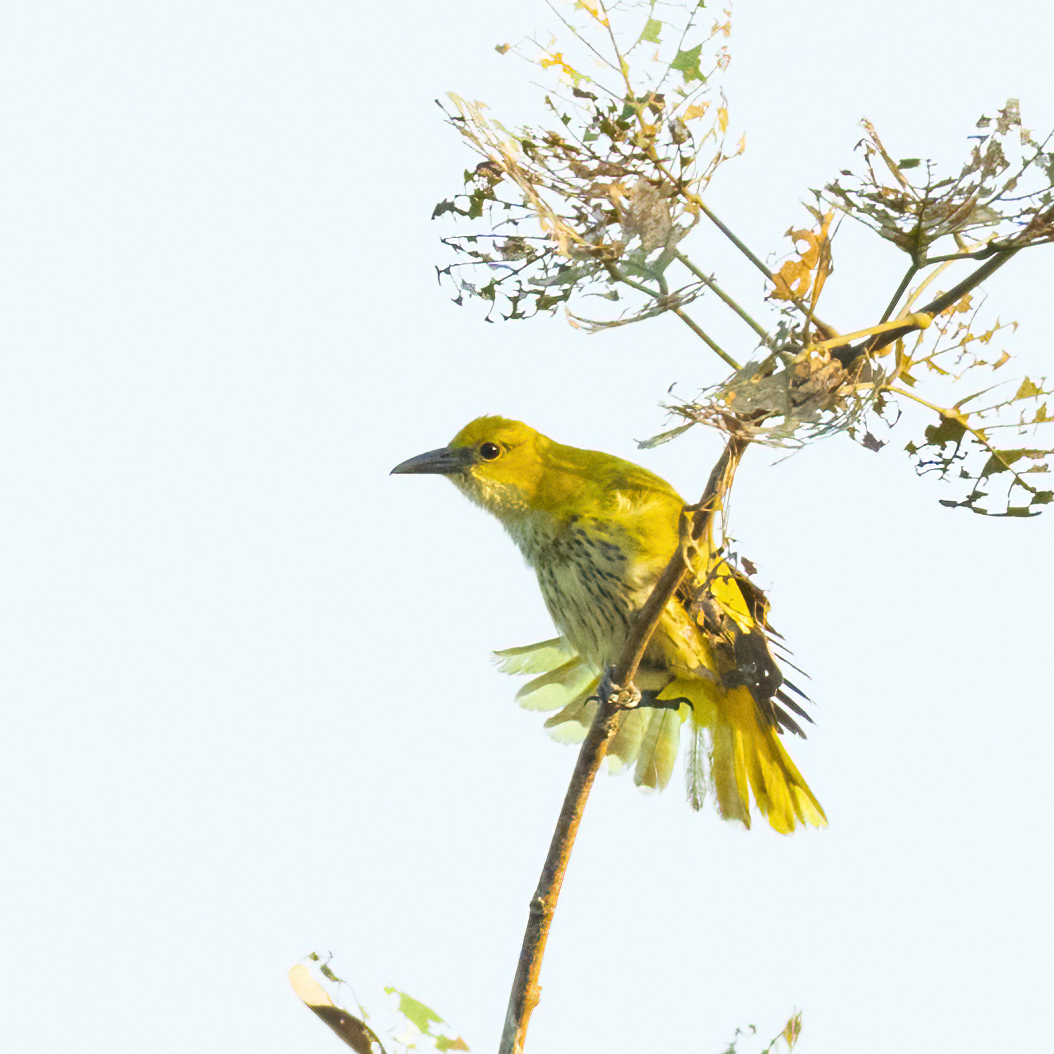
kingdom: Animalia
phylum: Chordata
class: Aves
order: Passeriformes
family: Oriolidae
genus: Oriolus
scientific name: Oriolus kundoo
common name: Indian golden oriole
